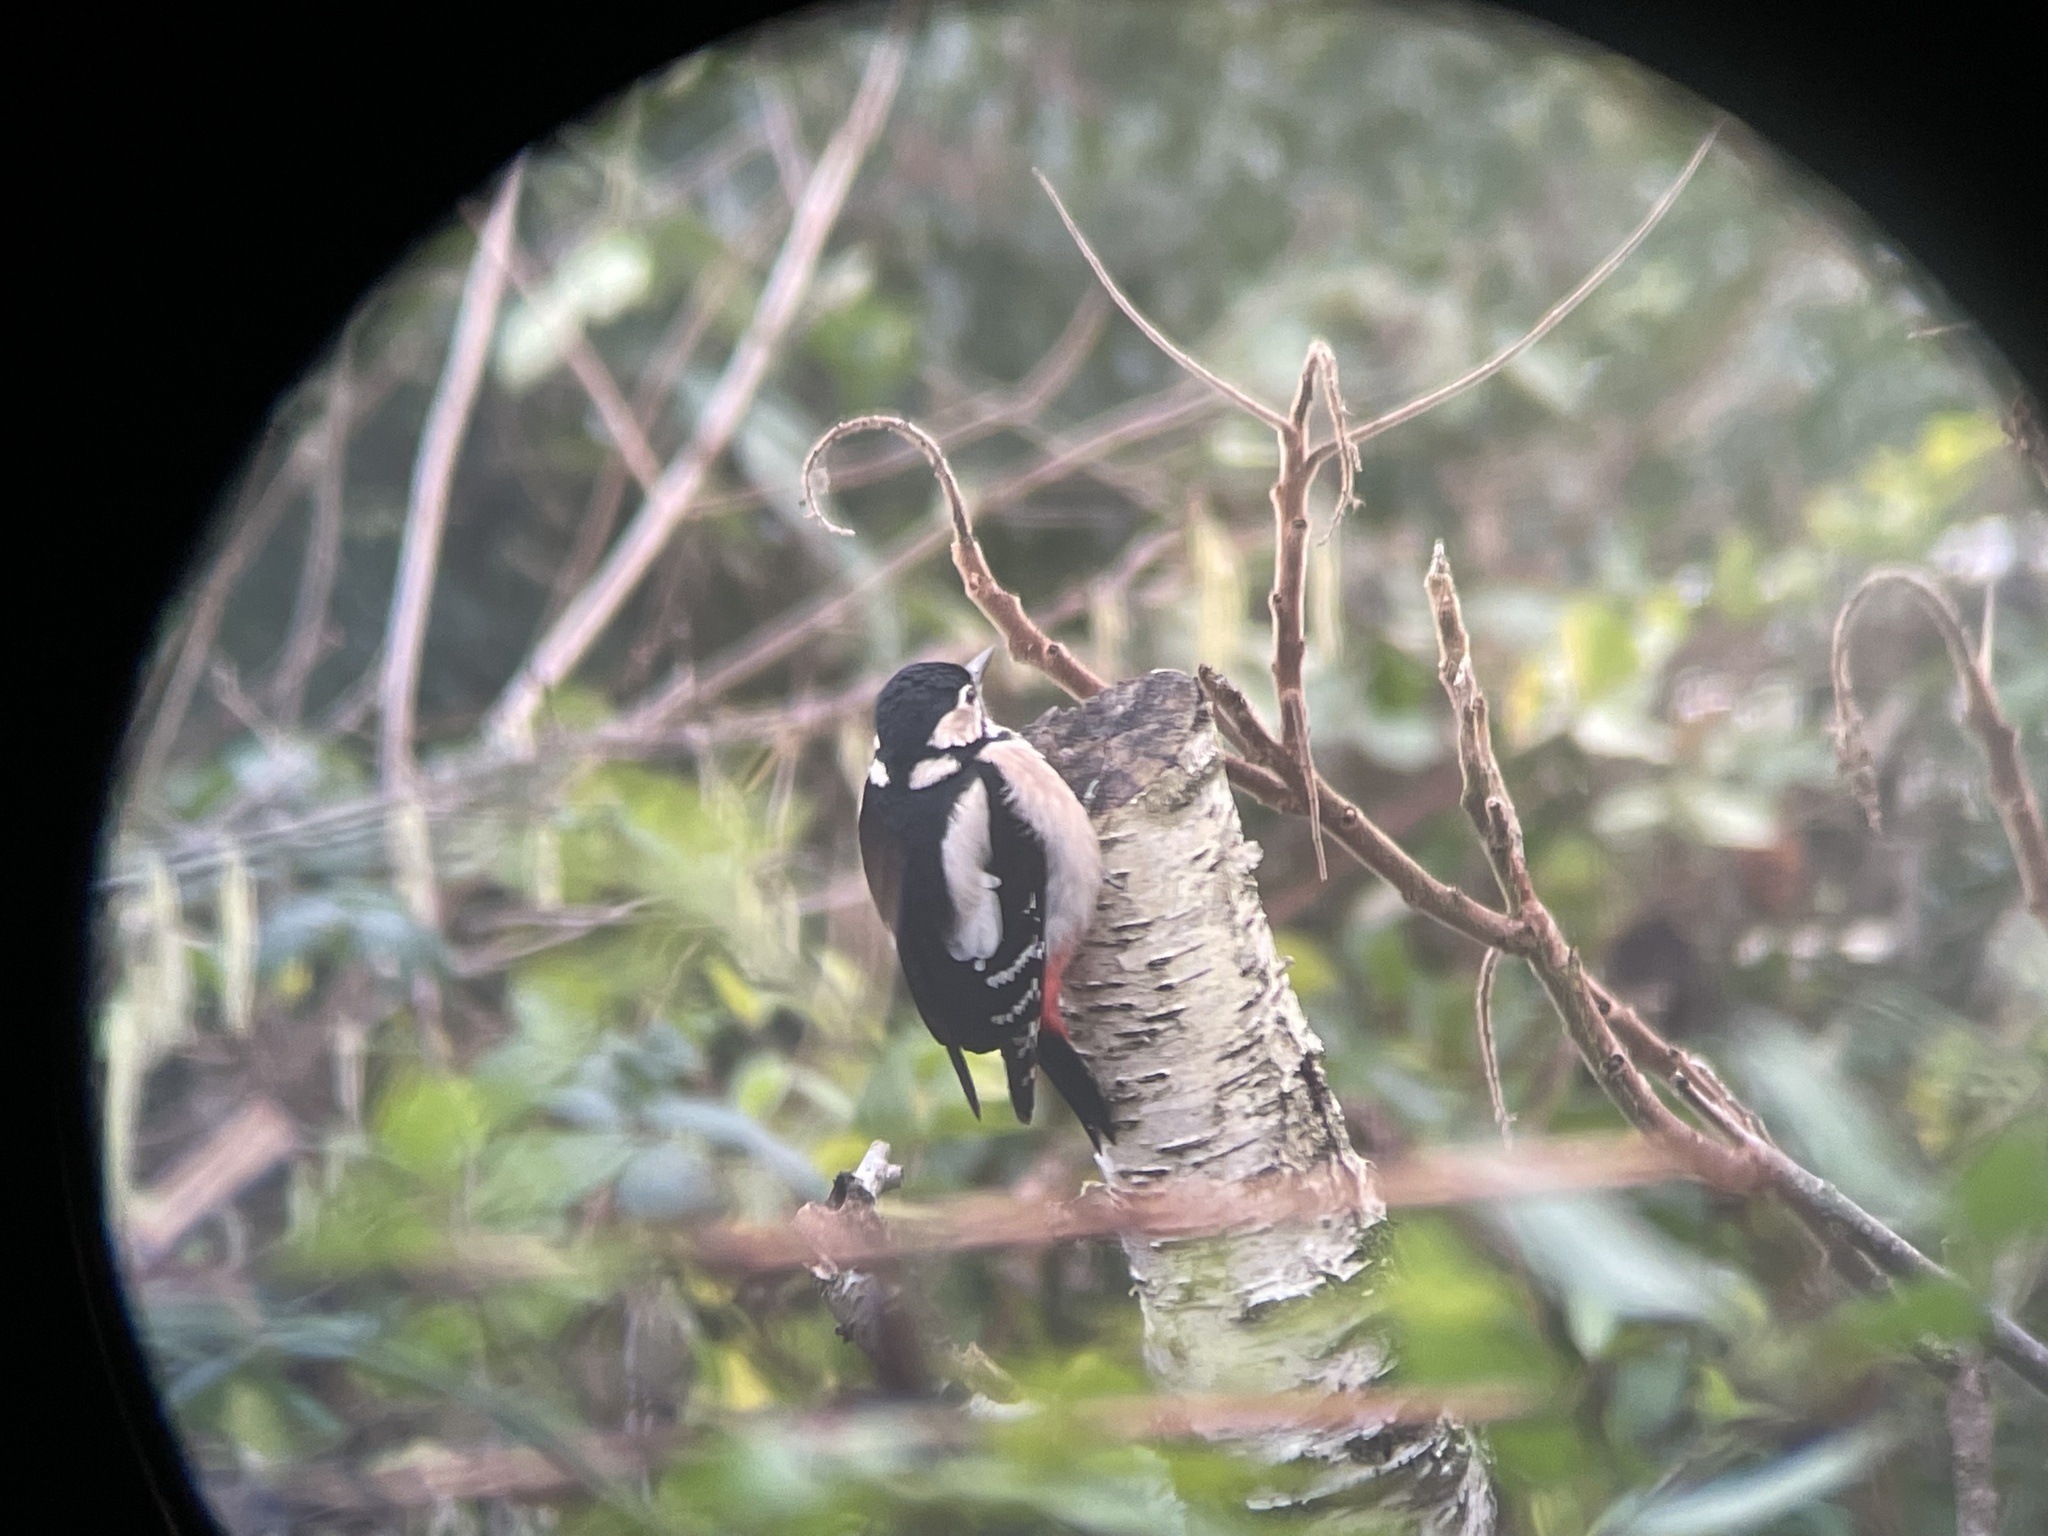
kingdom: Animalia
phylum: Chordata
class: Aves
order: Piciformes
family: Picidae
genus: Dendrocopos
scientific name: Dendrocopos major
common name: Great spotted woodpecker
